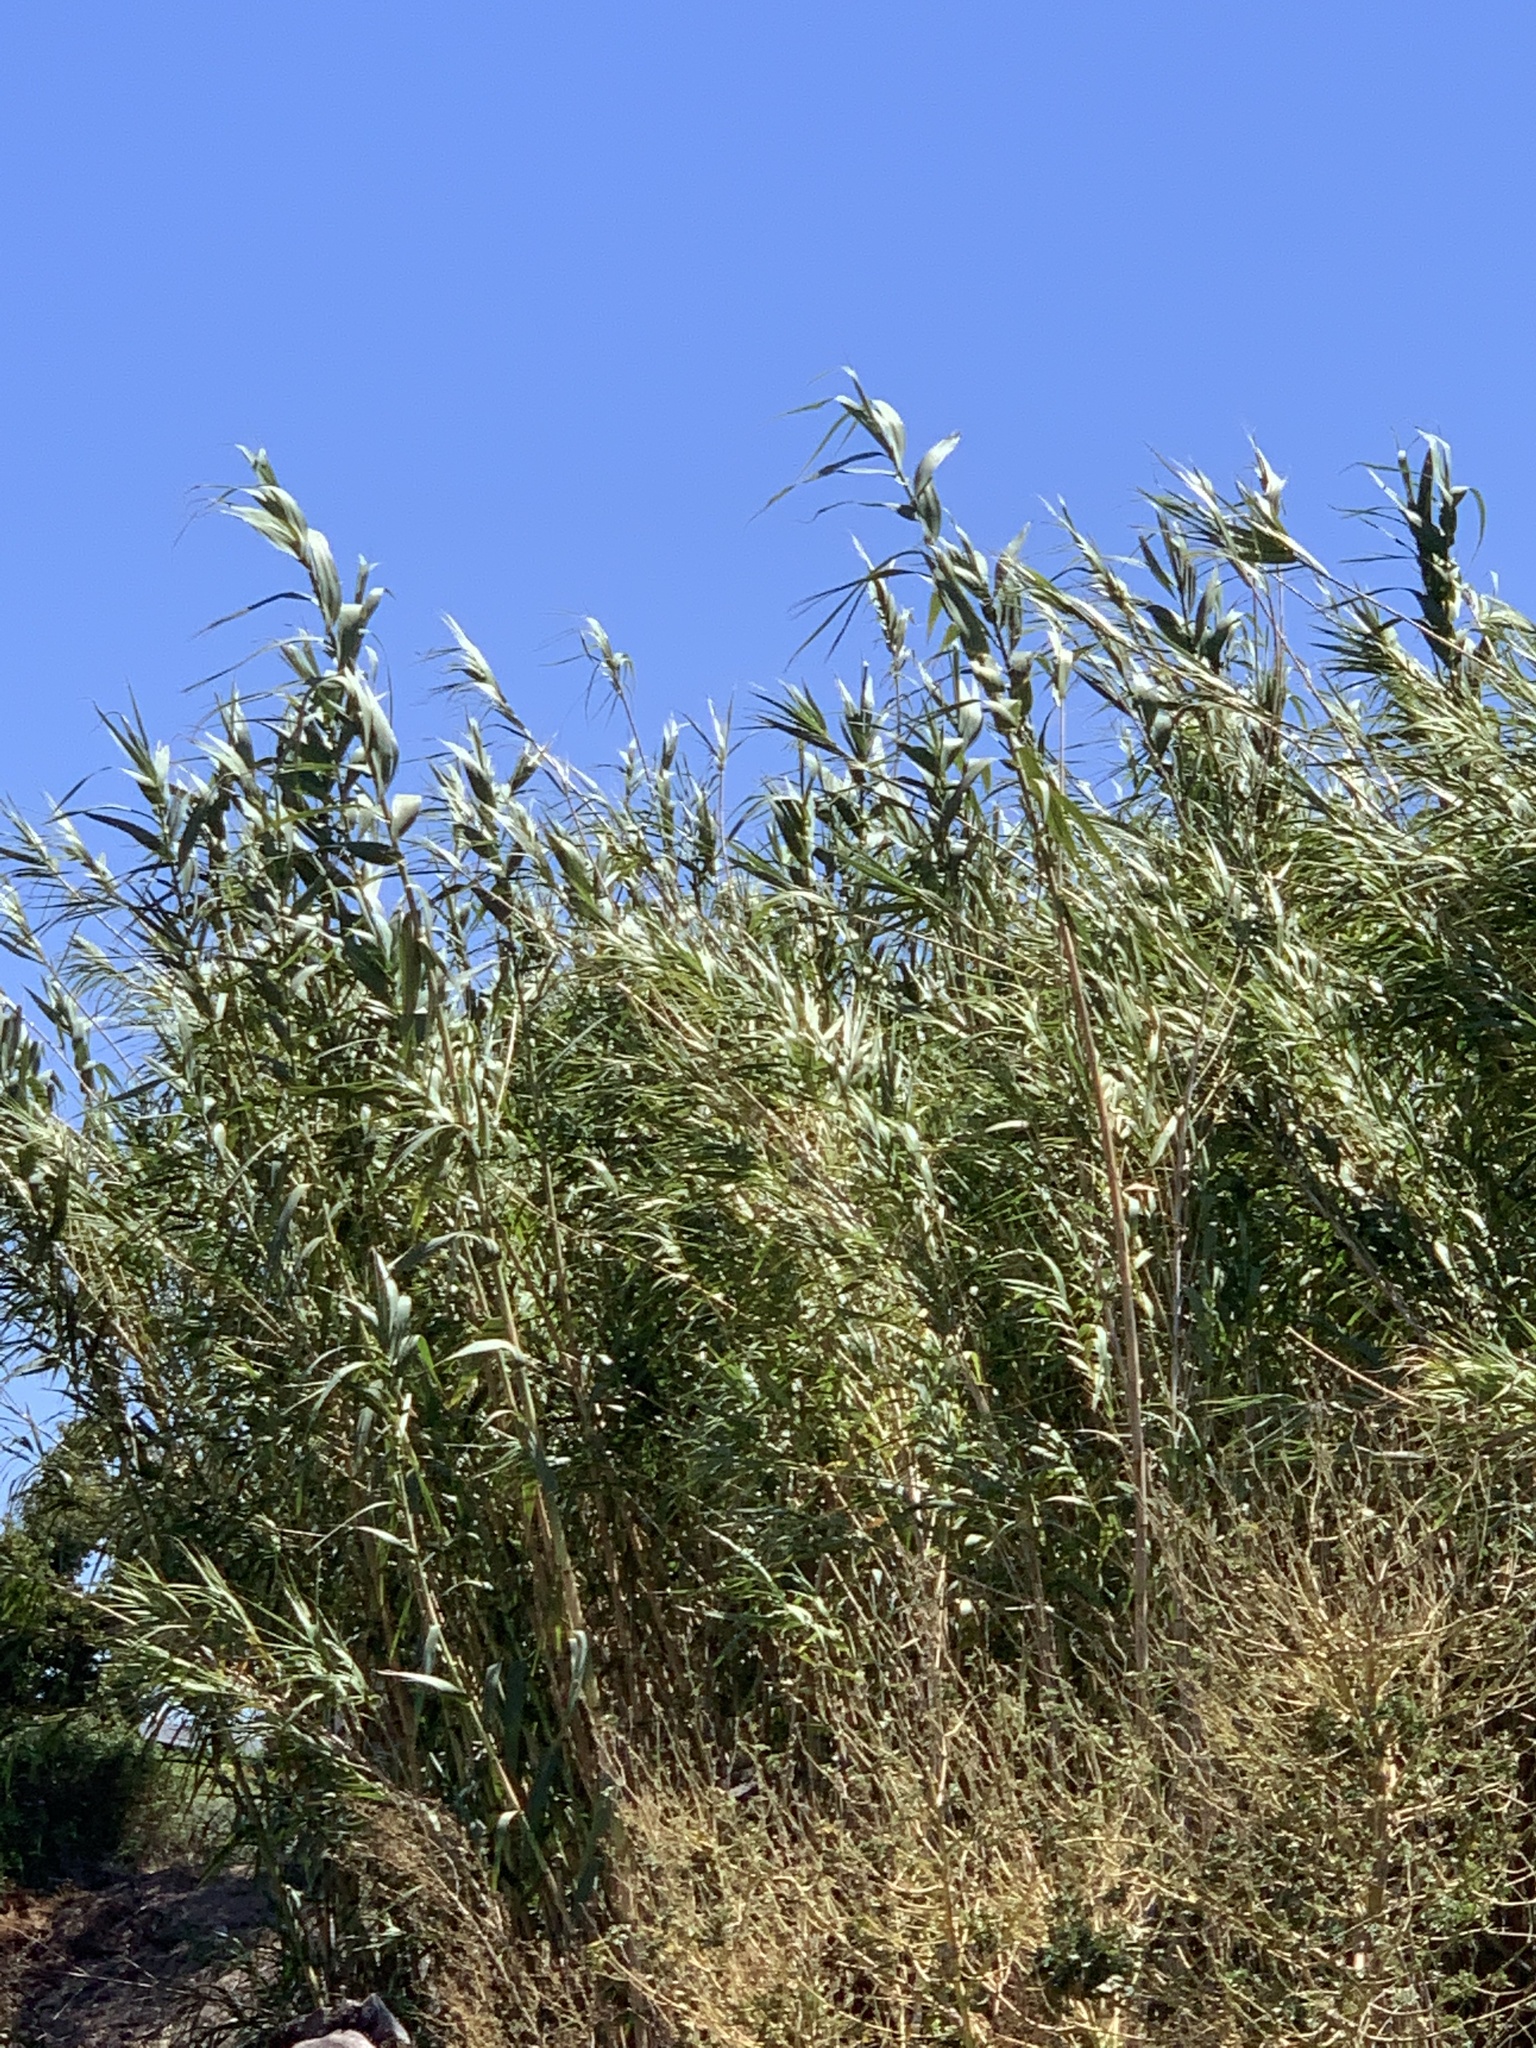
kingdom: Plantae
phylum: Tracheophyta
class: Liliopsida
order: Poales
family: Poaceae
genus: Arundo
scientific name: Arundo donax
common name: Giant reed
